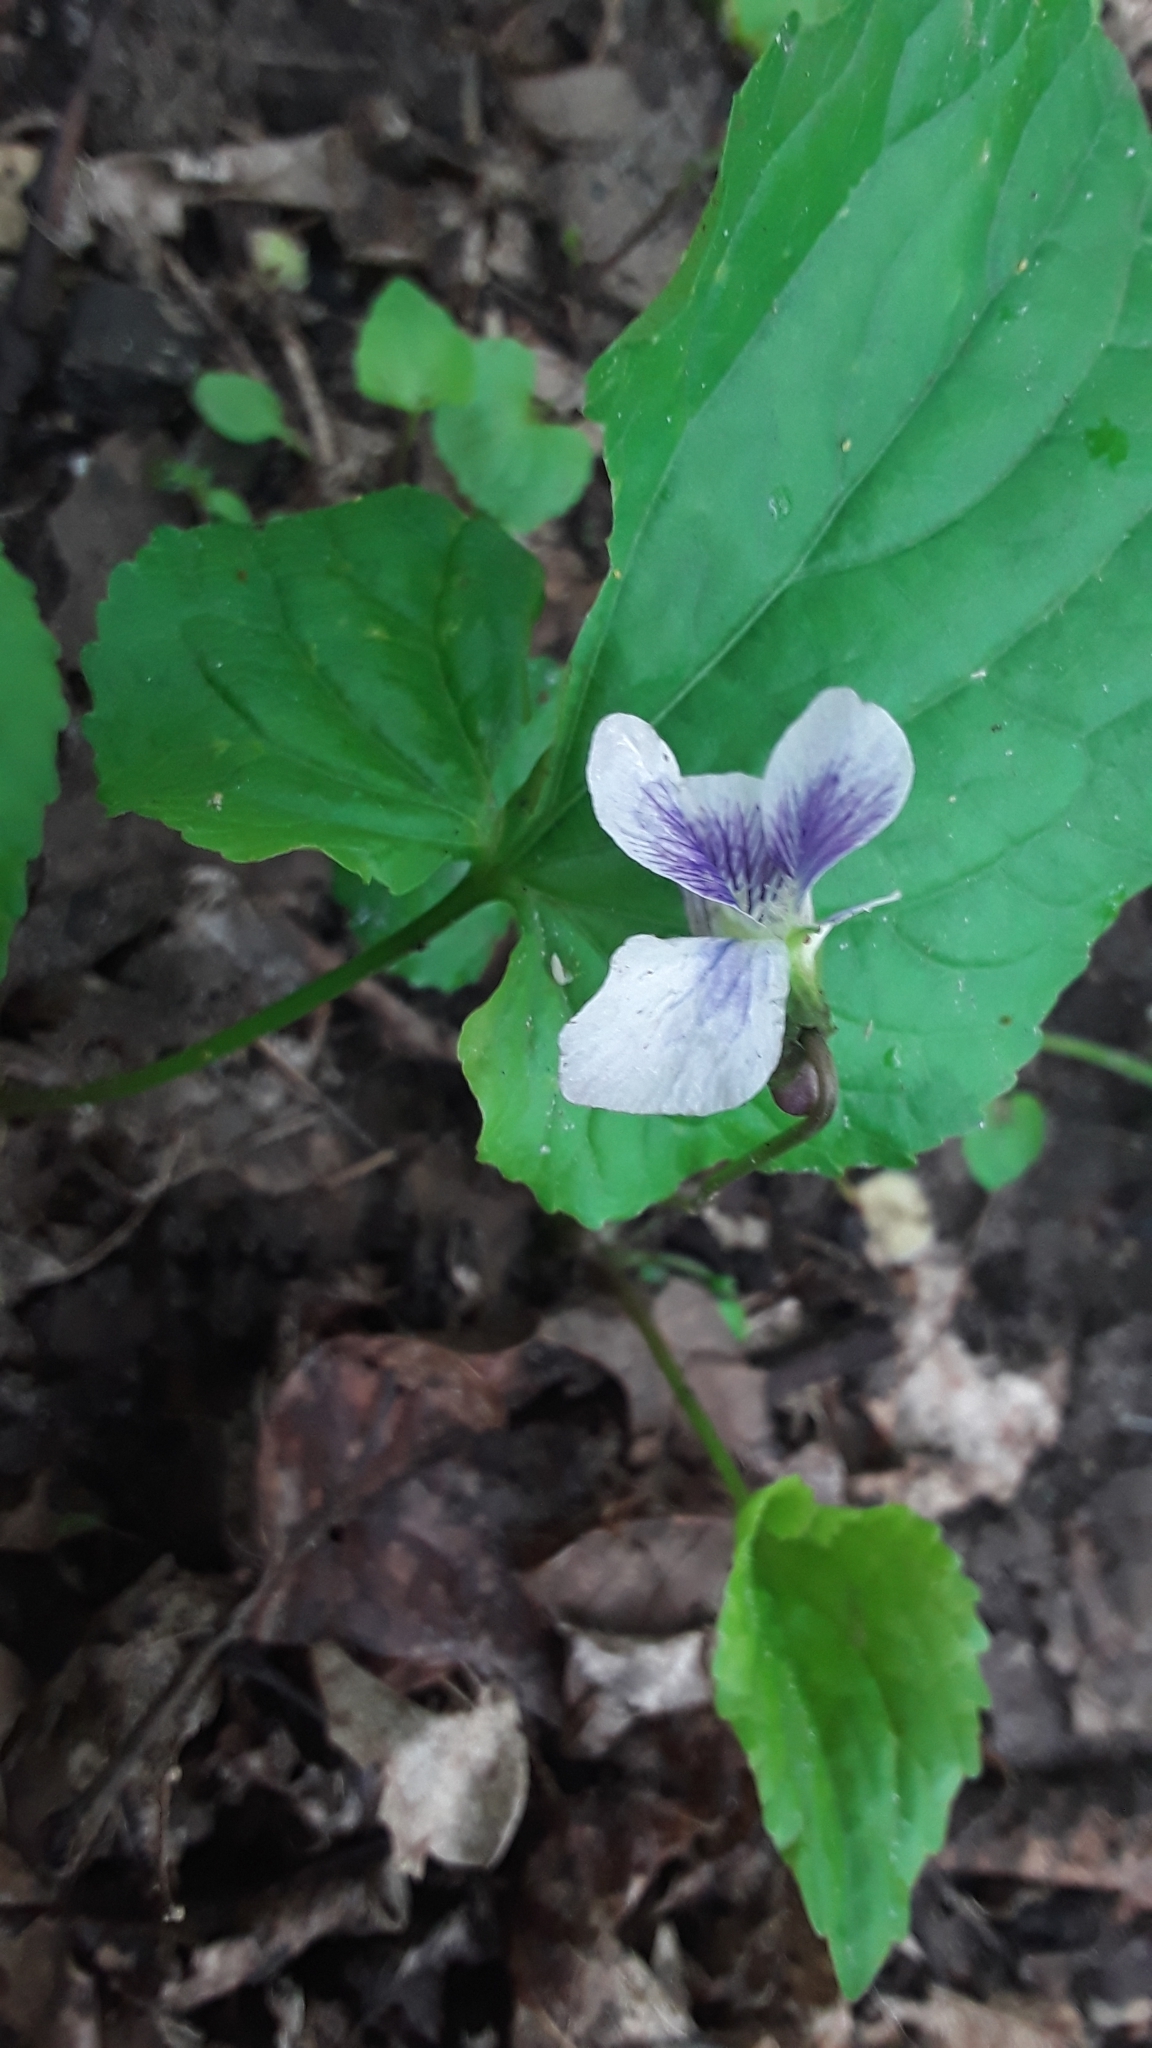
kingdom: Plantae
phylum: Tracheophyta
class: Magnoliopsida
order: Malpighiales
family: Violaceae
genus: Viola
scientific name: Viola sororia
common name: Dooryard violet
